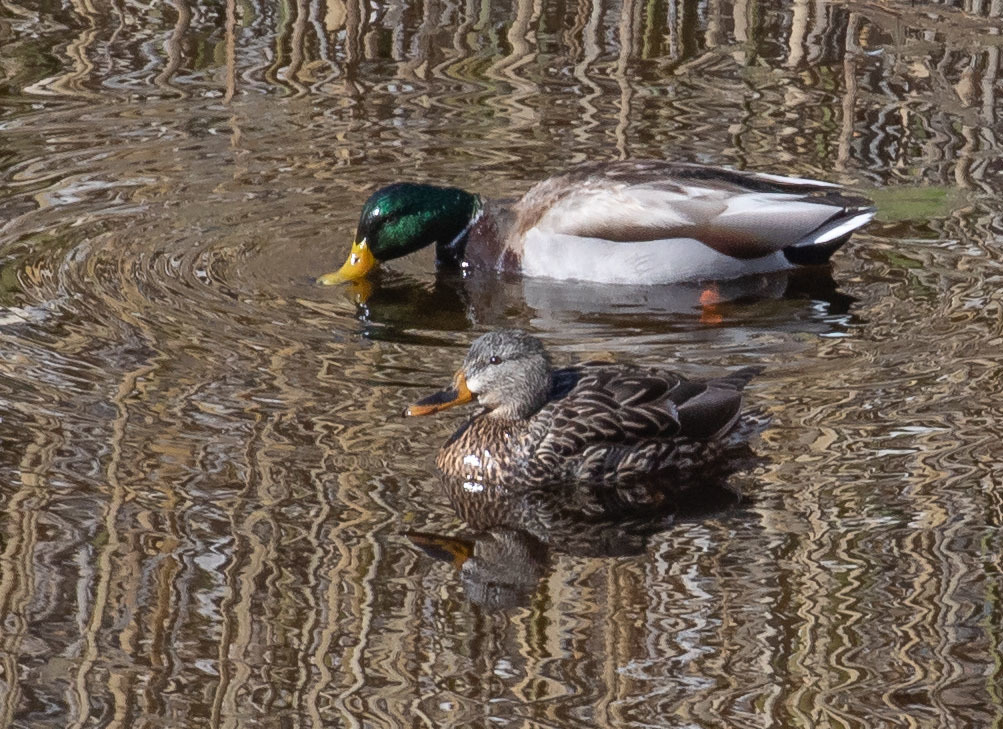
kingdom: Animalia
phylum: Chordata
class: Aves
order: Anseriformes
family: Anatidae
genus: Anas
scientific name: Anas platyrhynchos
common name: Mallard
